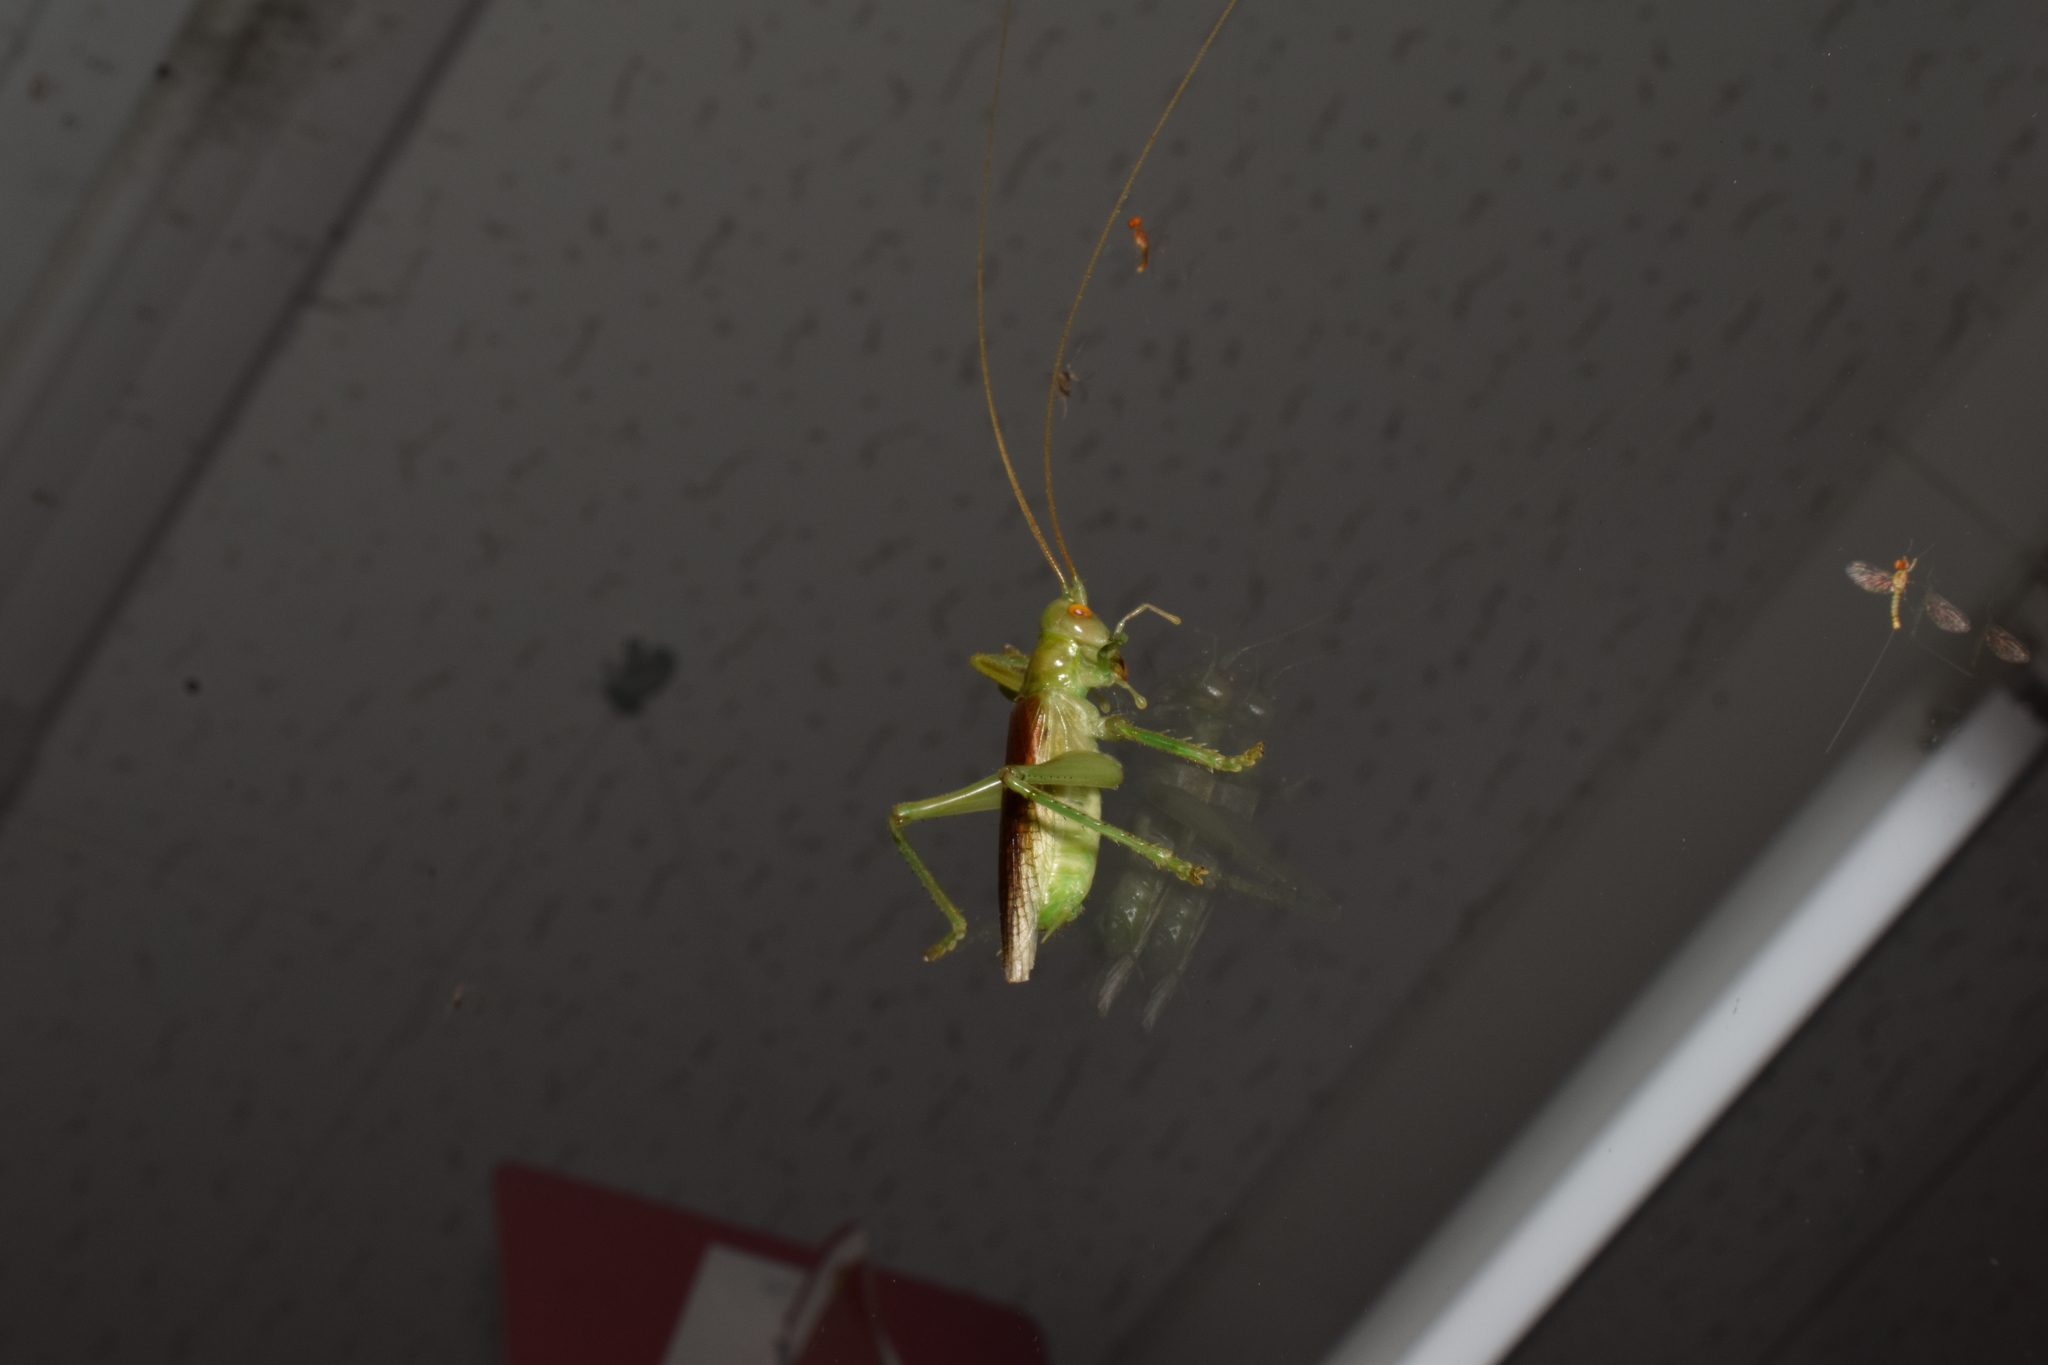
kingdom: Animalia
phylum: Arthropoda
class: Insecta
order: Orthoptera
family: Gryllacrididae
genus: Eugryllacris
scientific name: Eugryllacris japonica
